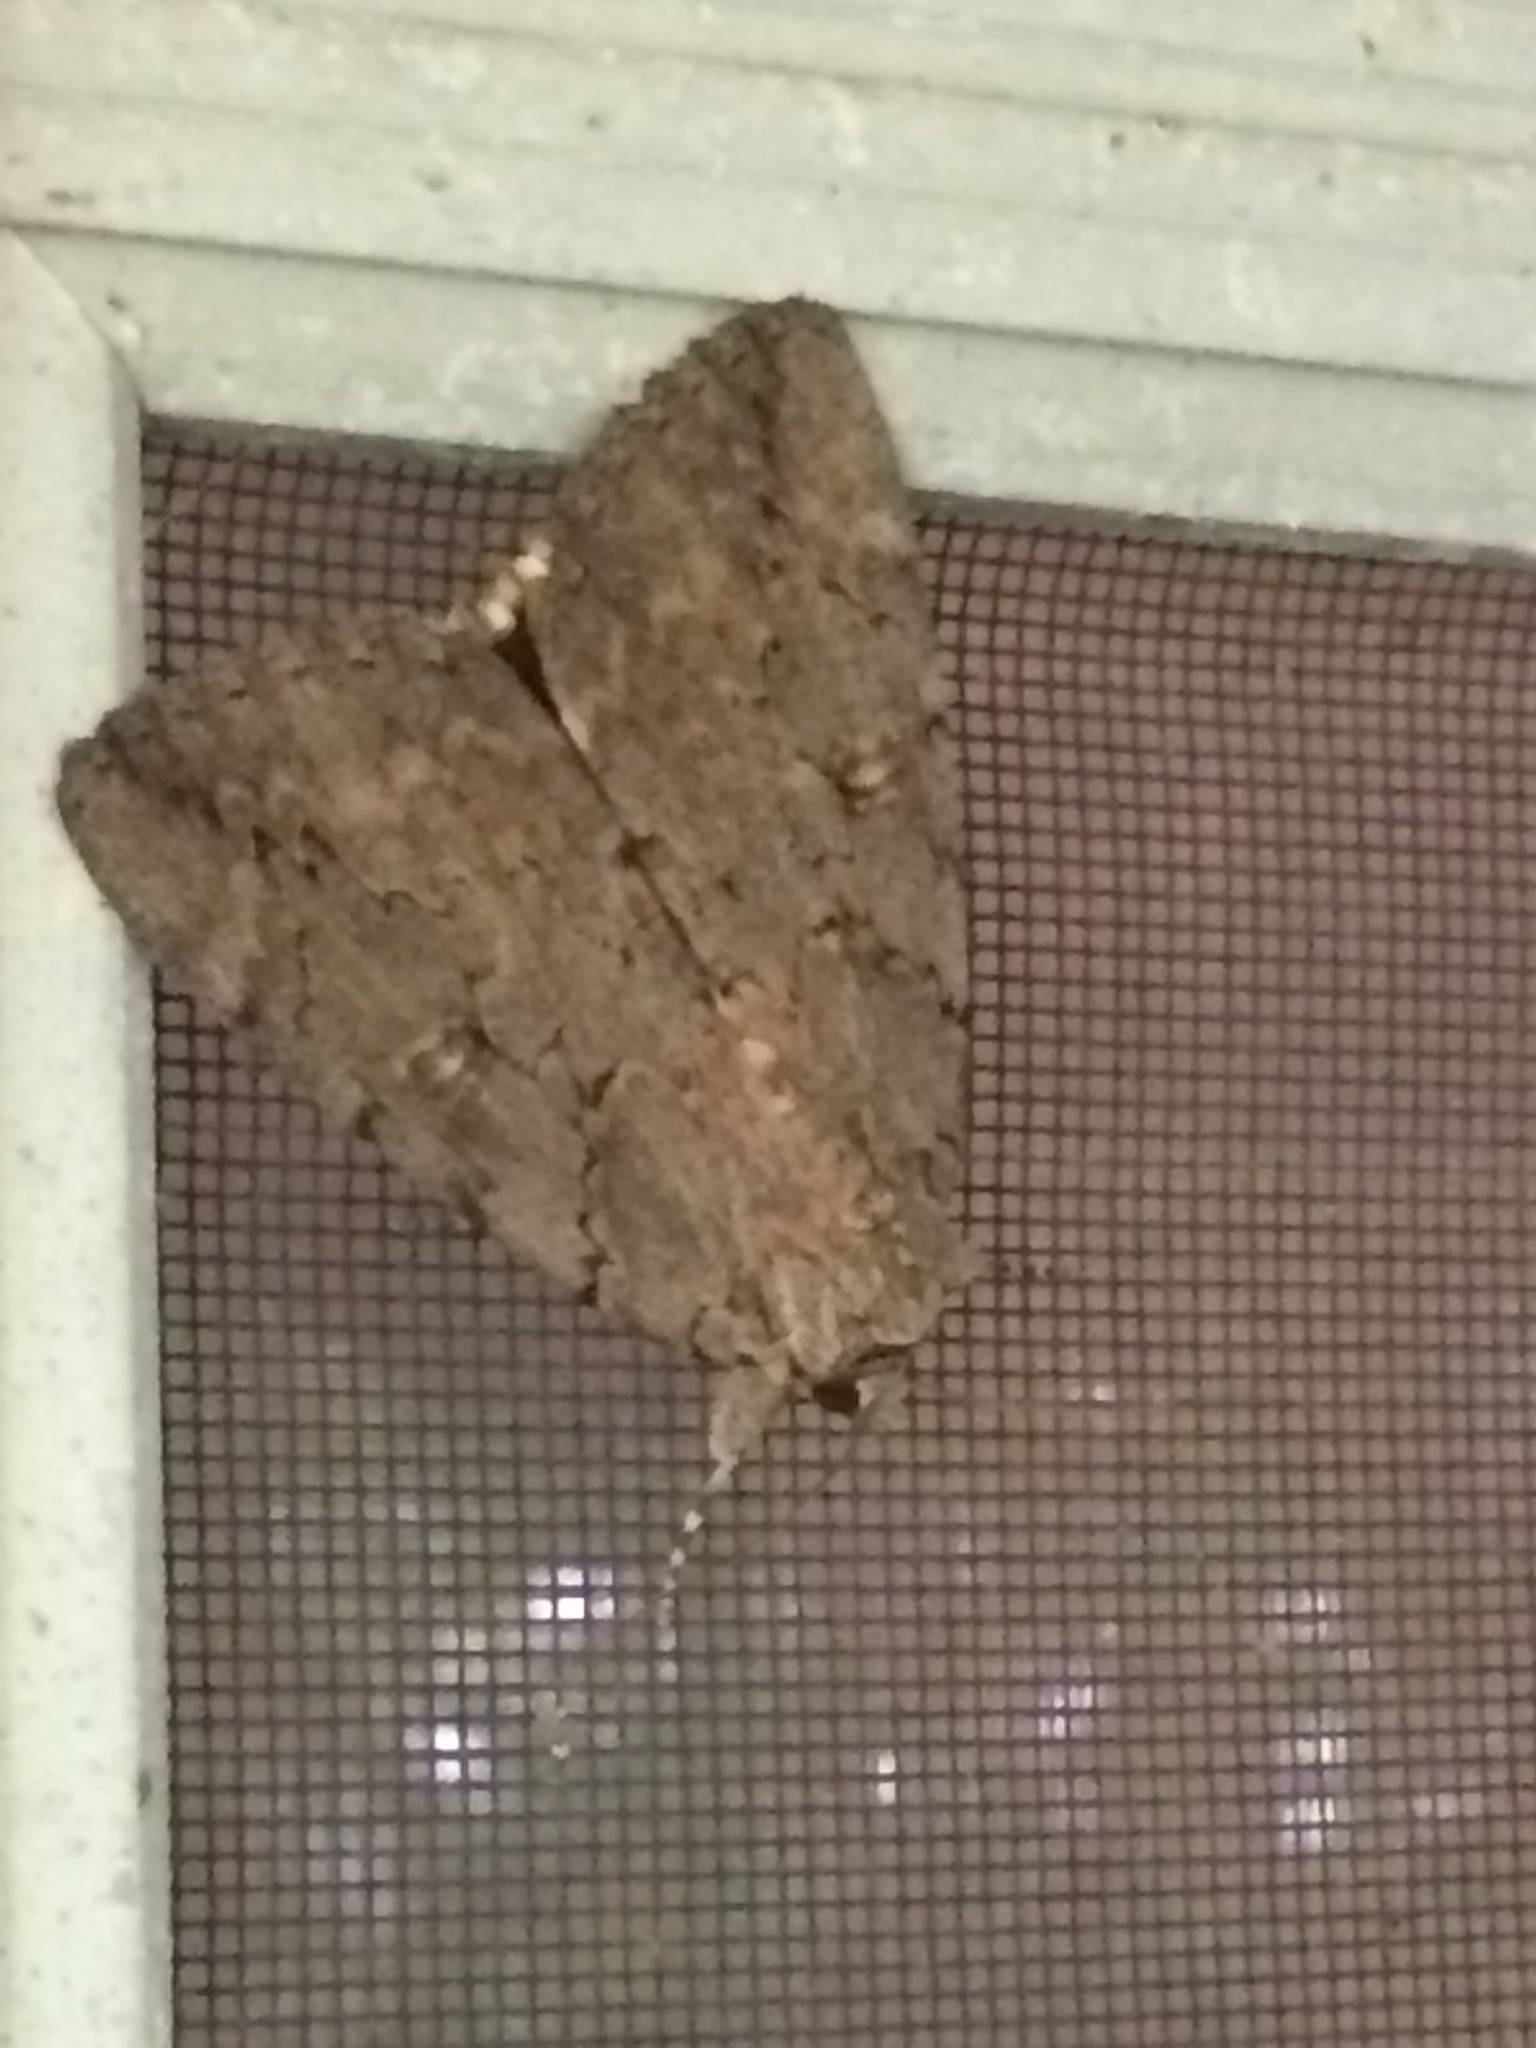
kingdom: Animalia
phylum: Arthropoda
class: Insecta
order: Lepidoptera
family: Erebidae
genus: Catocala
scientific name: Catocala amatrix
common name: Sweetheart underwing
